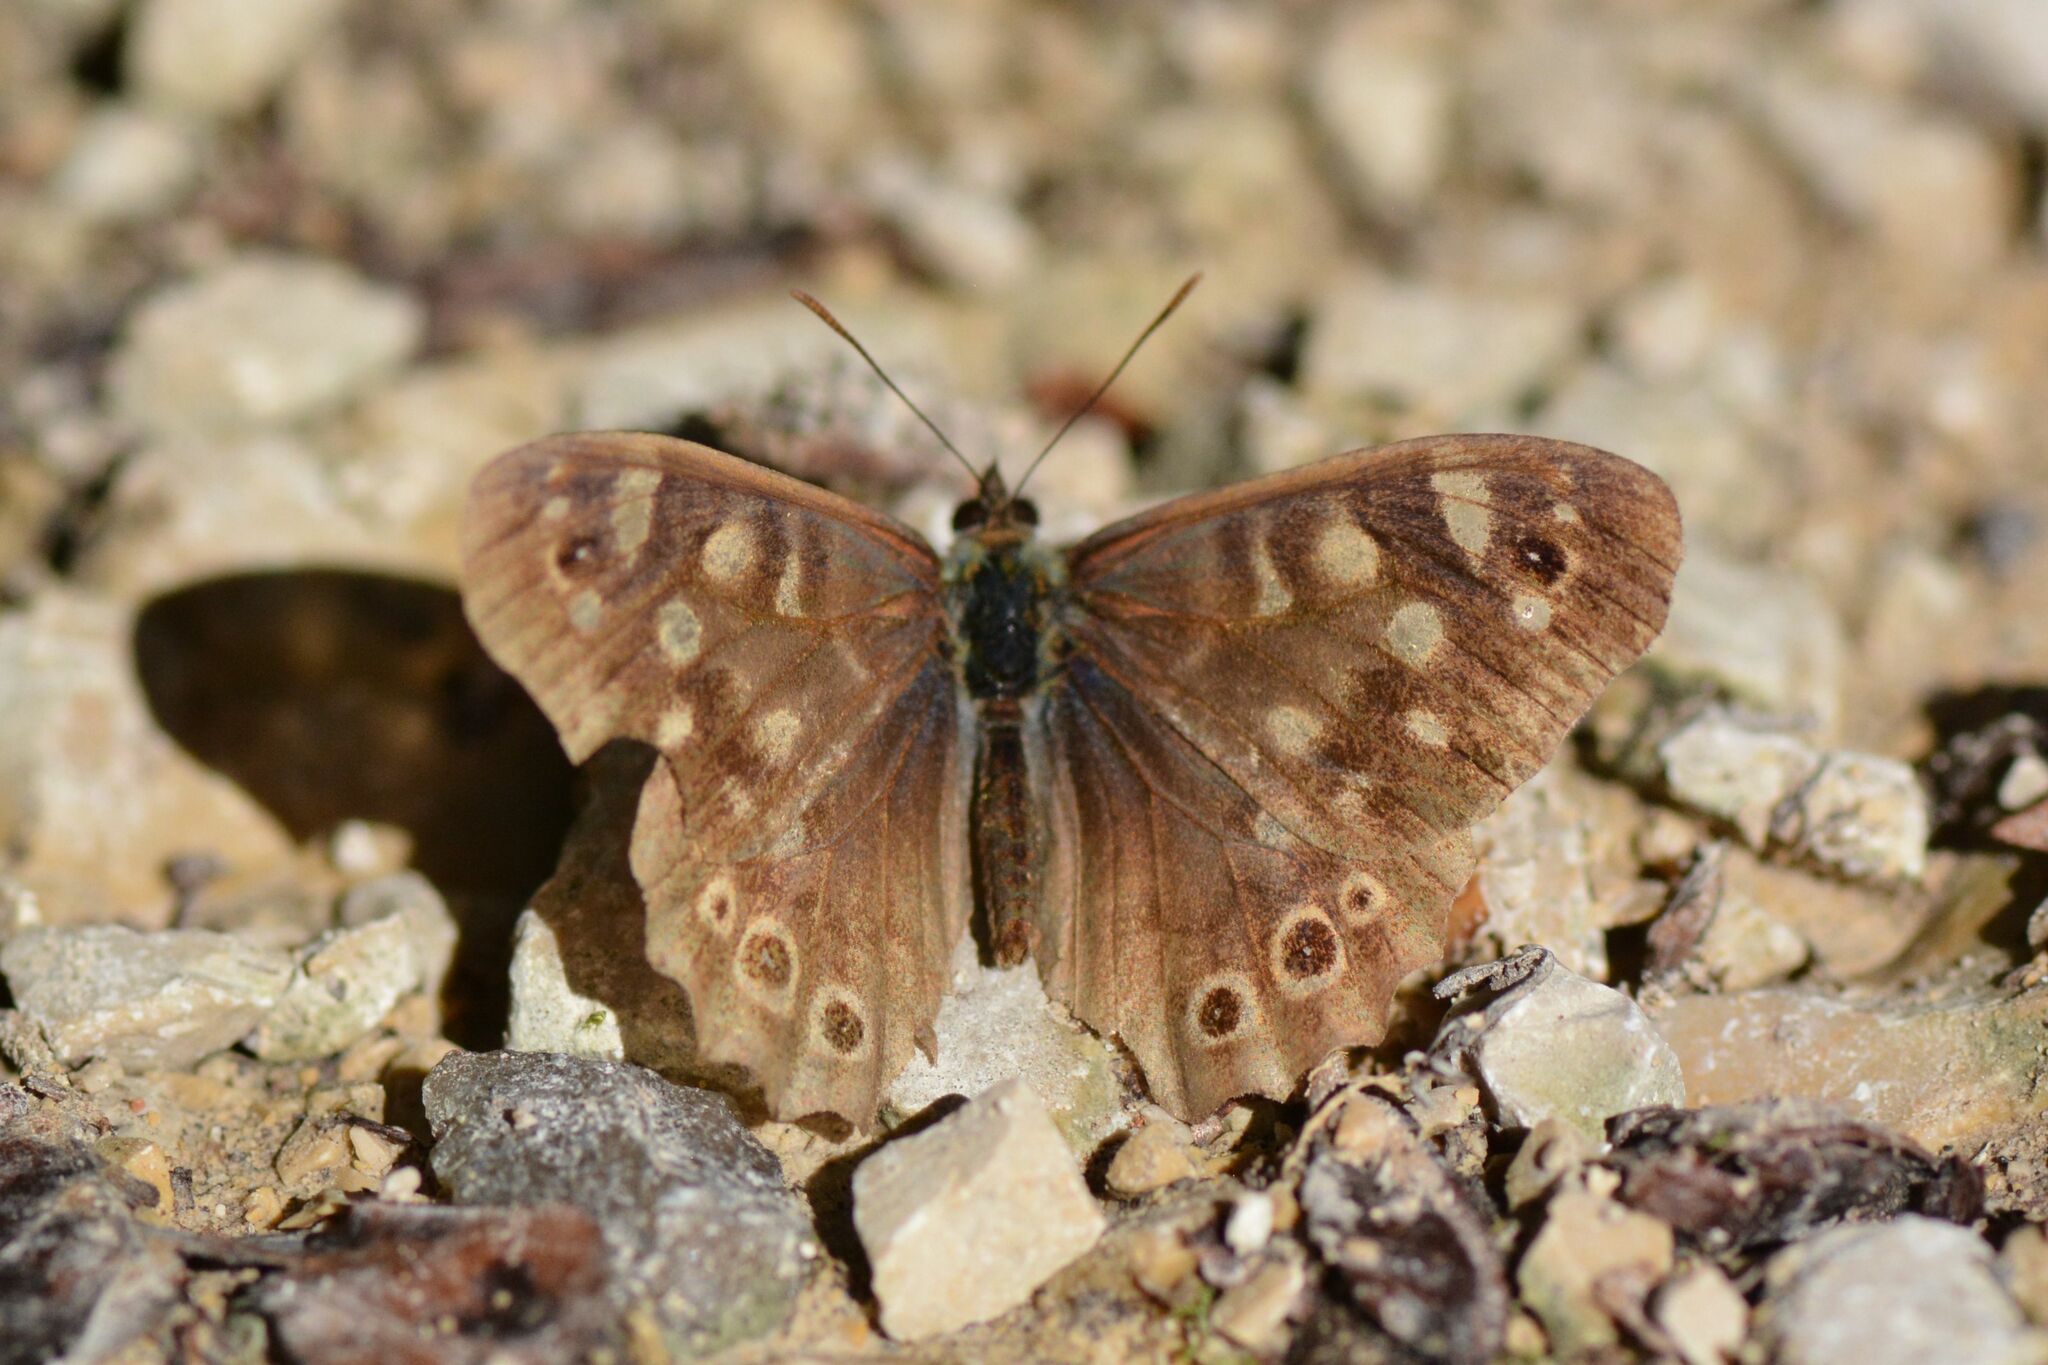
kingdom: Animalia
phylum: Arthropoda
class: Insecta
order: Lepidoptera
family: Nymphalidae
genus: Pararge
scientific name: Pararge aegeria
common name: Speckled wood
